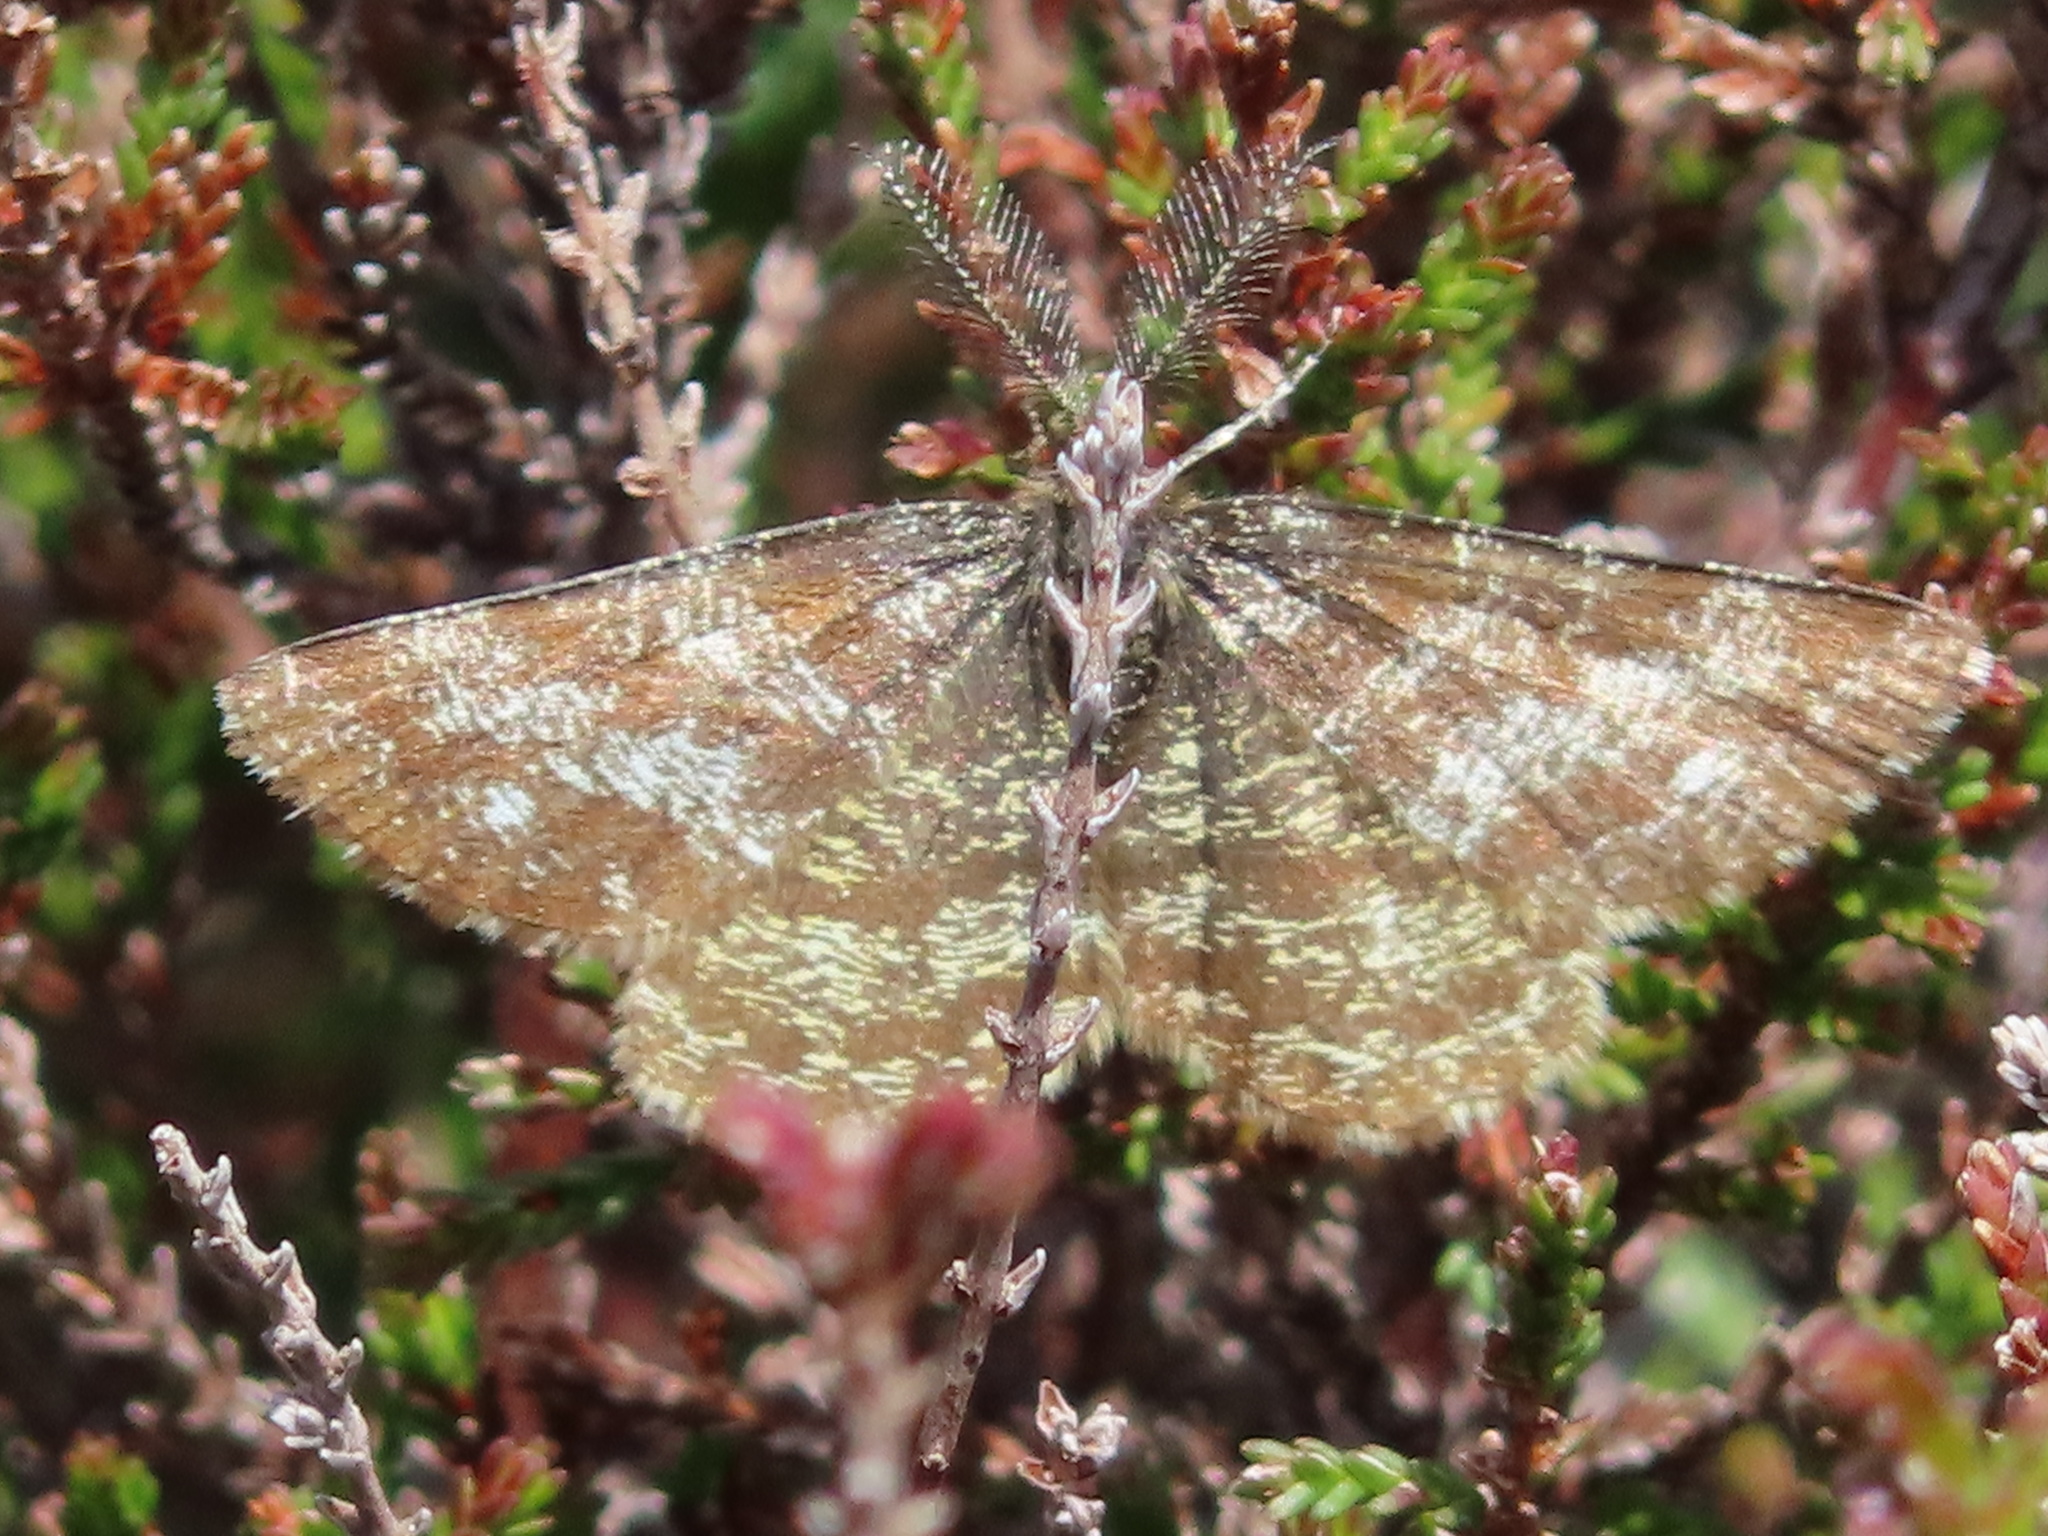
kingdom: Animalia
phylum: Arthropoda
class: Insecta
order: Lepidoptera
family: Geometridae
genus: Ematurga
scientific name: Ematurga atomaria
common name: Common heath
